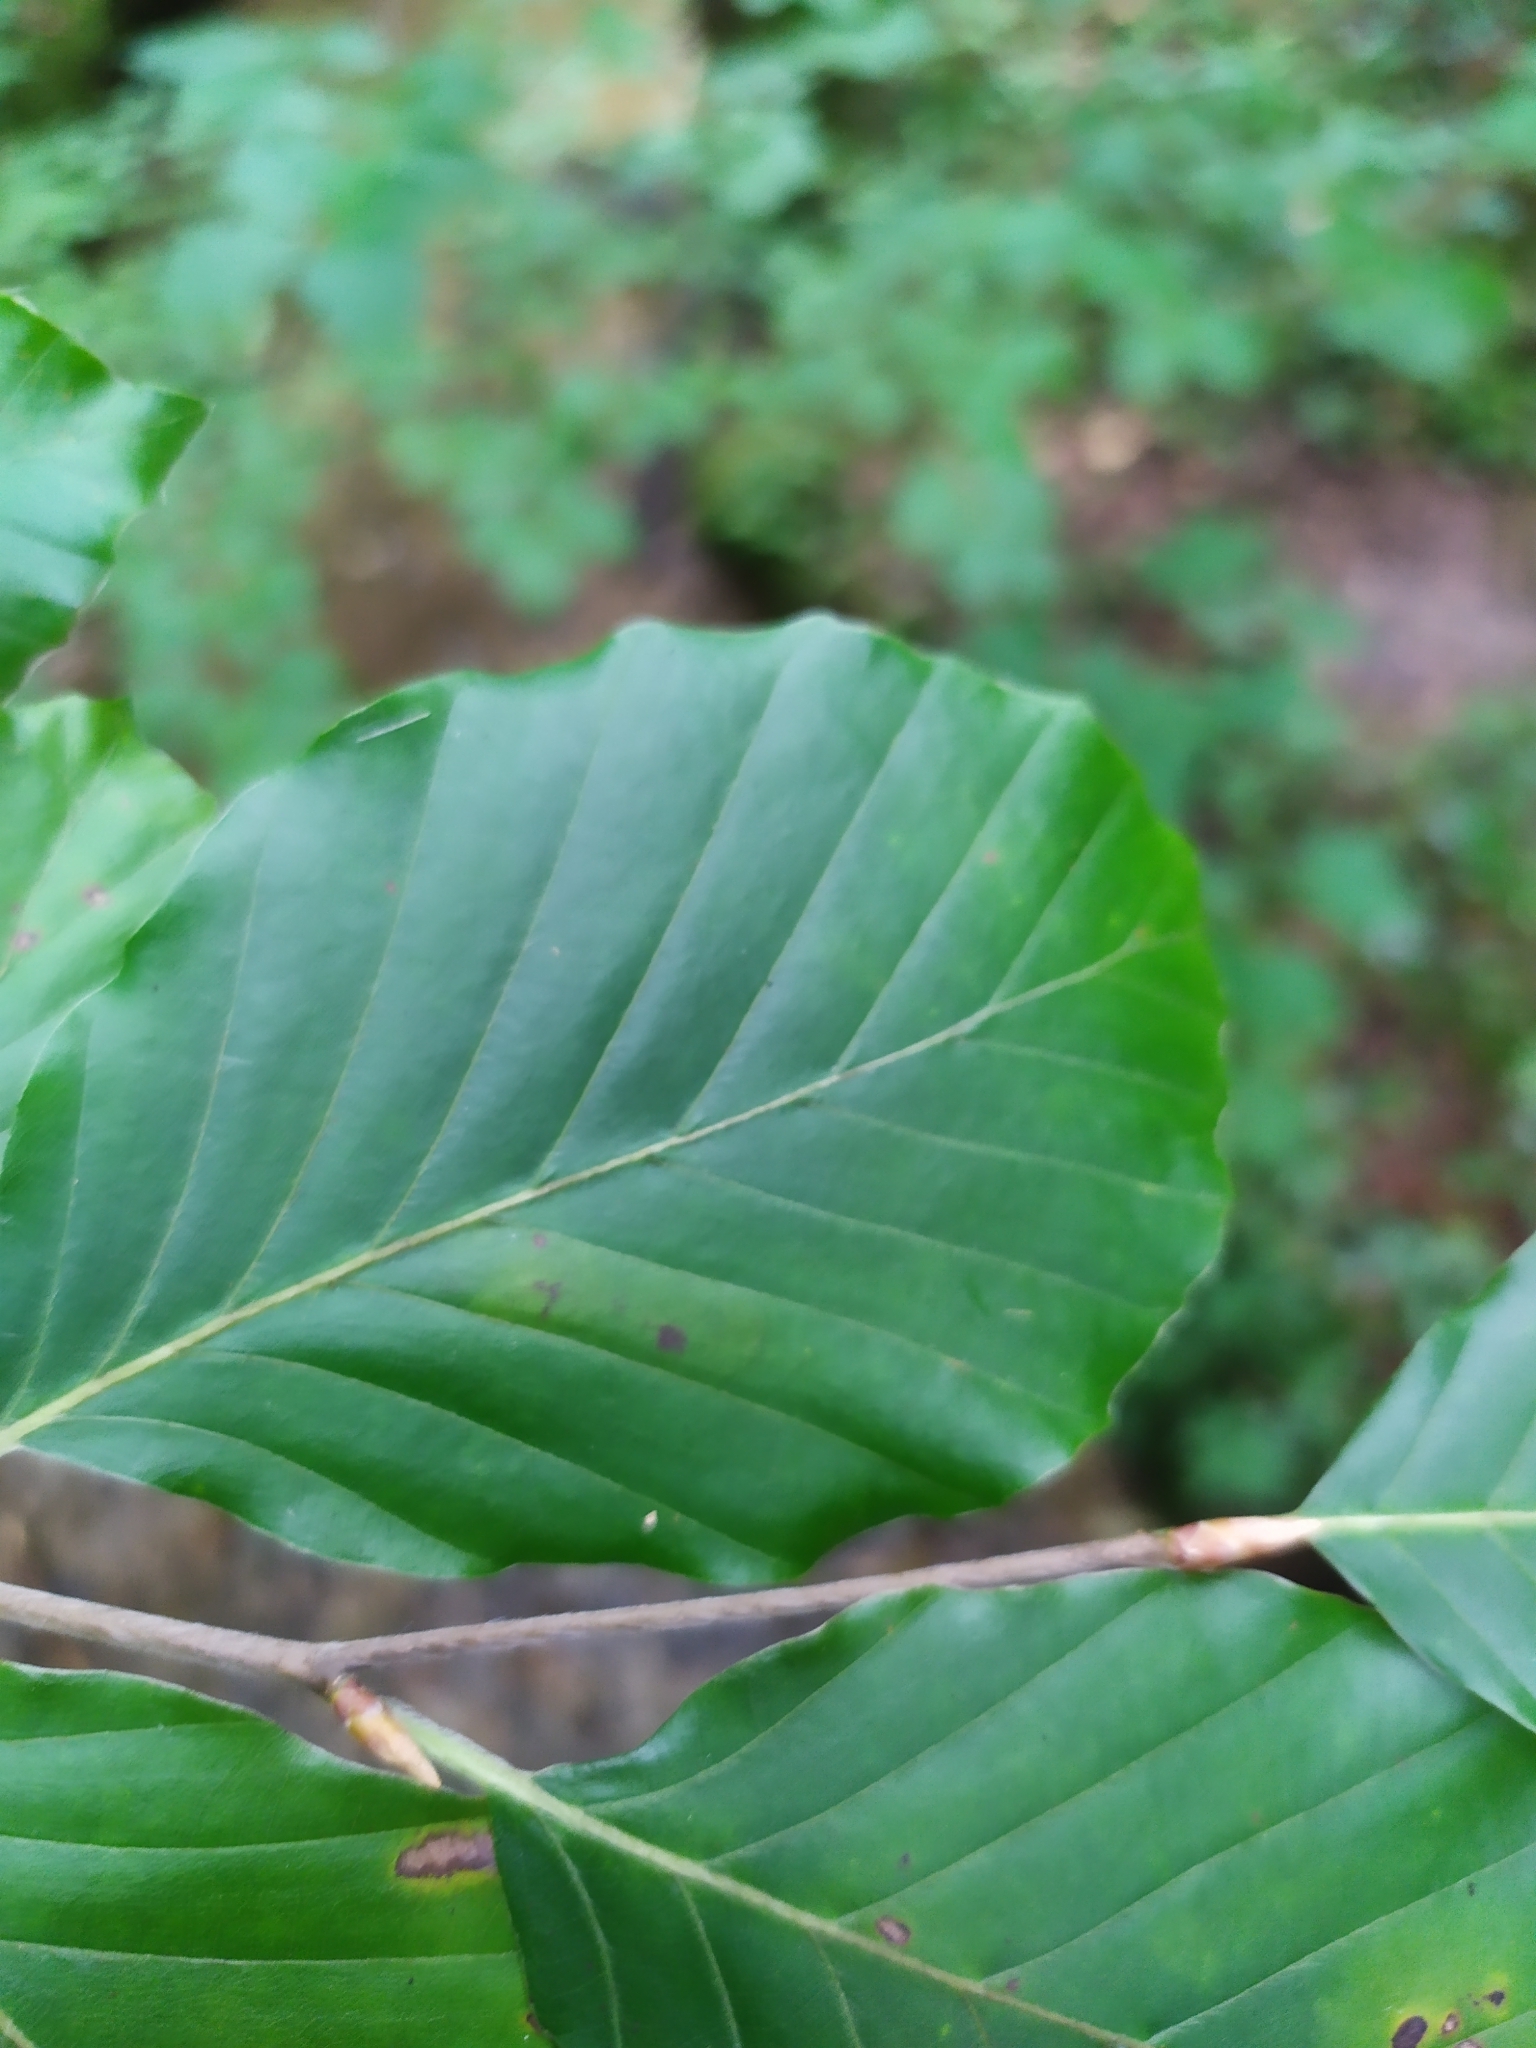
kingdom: Animalia
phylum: Arthropoda
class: Insecta
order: Lepidoptera
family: Gracillariidae
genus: Phyllonorycter
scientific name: Phyllonorycter maestingella
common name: Beech midget
